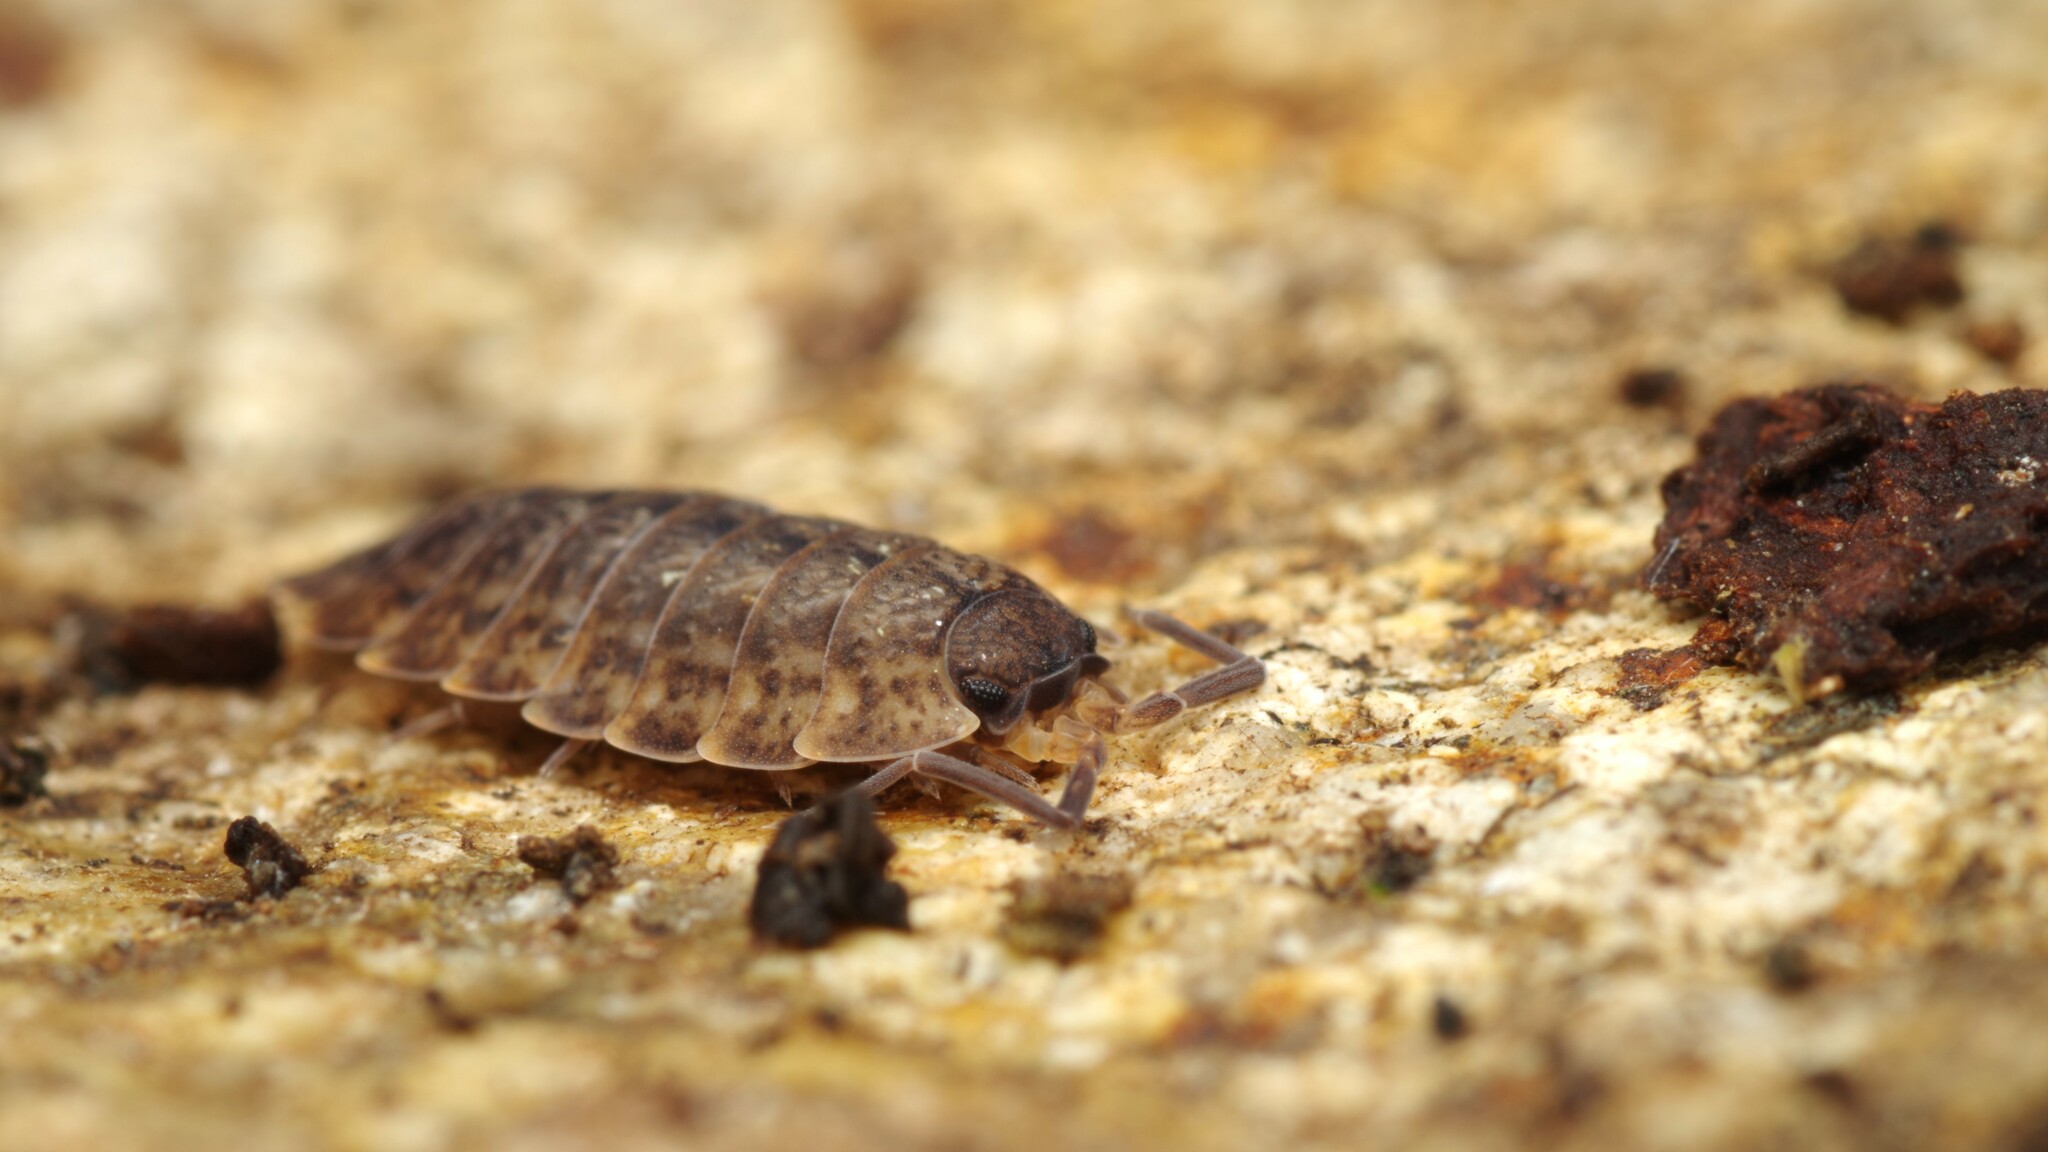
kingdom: Animalia
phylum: Arthropoda
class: Malacostraca
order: Isopoda
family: Porcellionidae
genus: Porcellio
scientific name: Porcellio monticola
